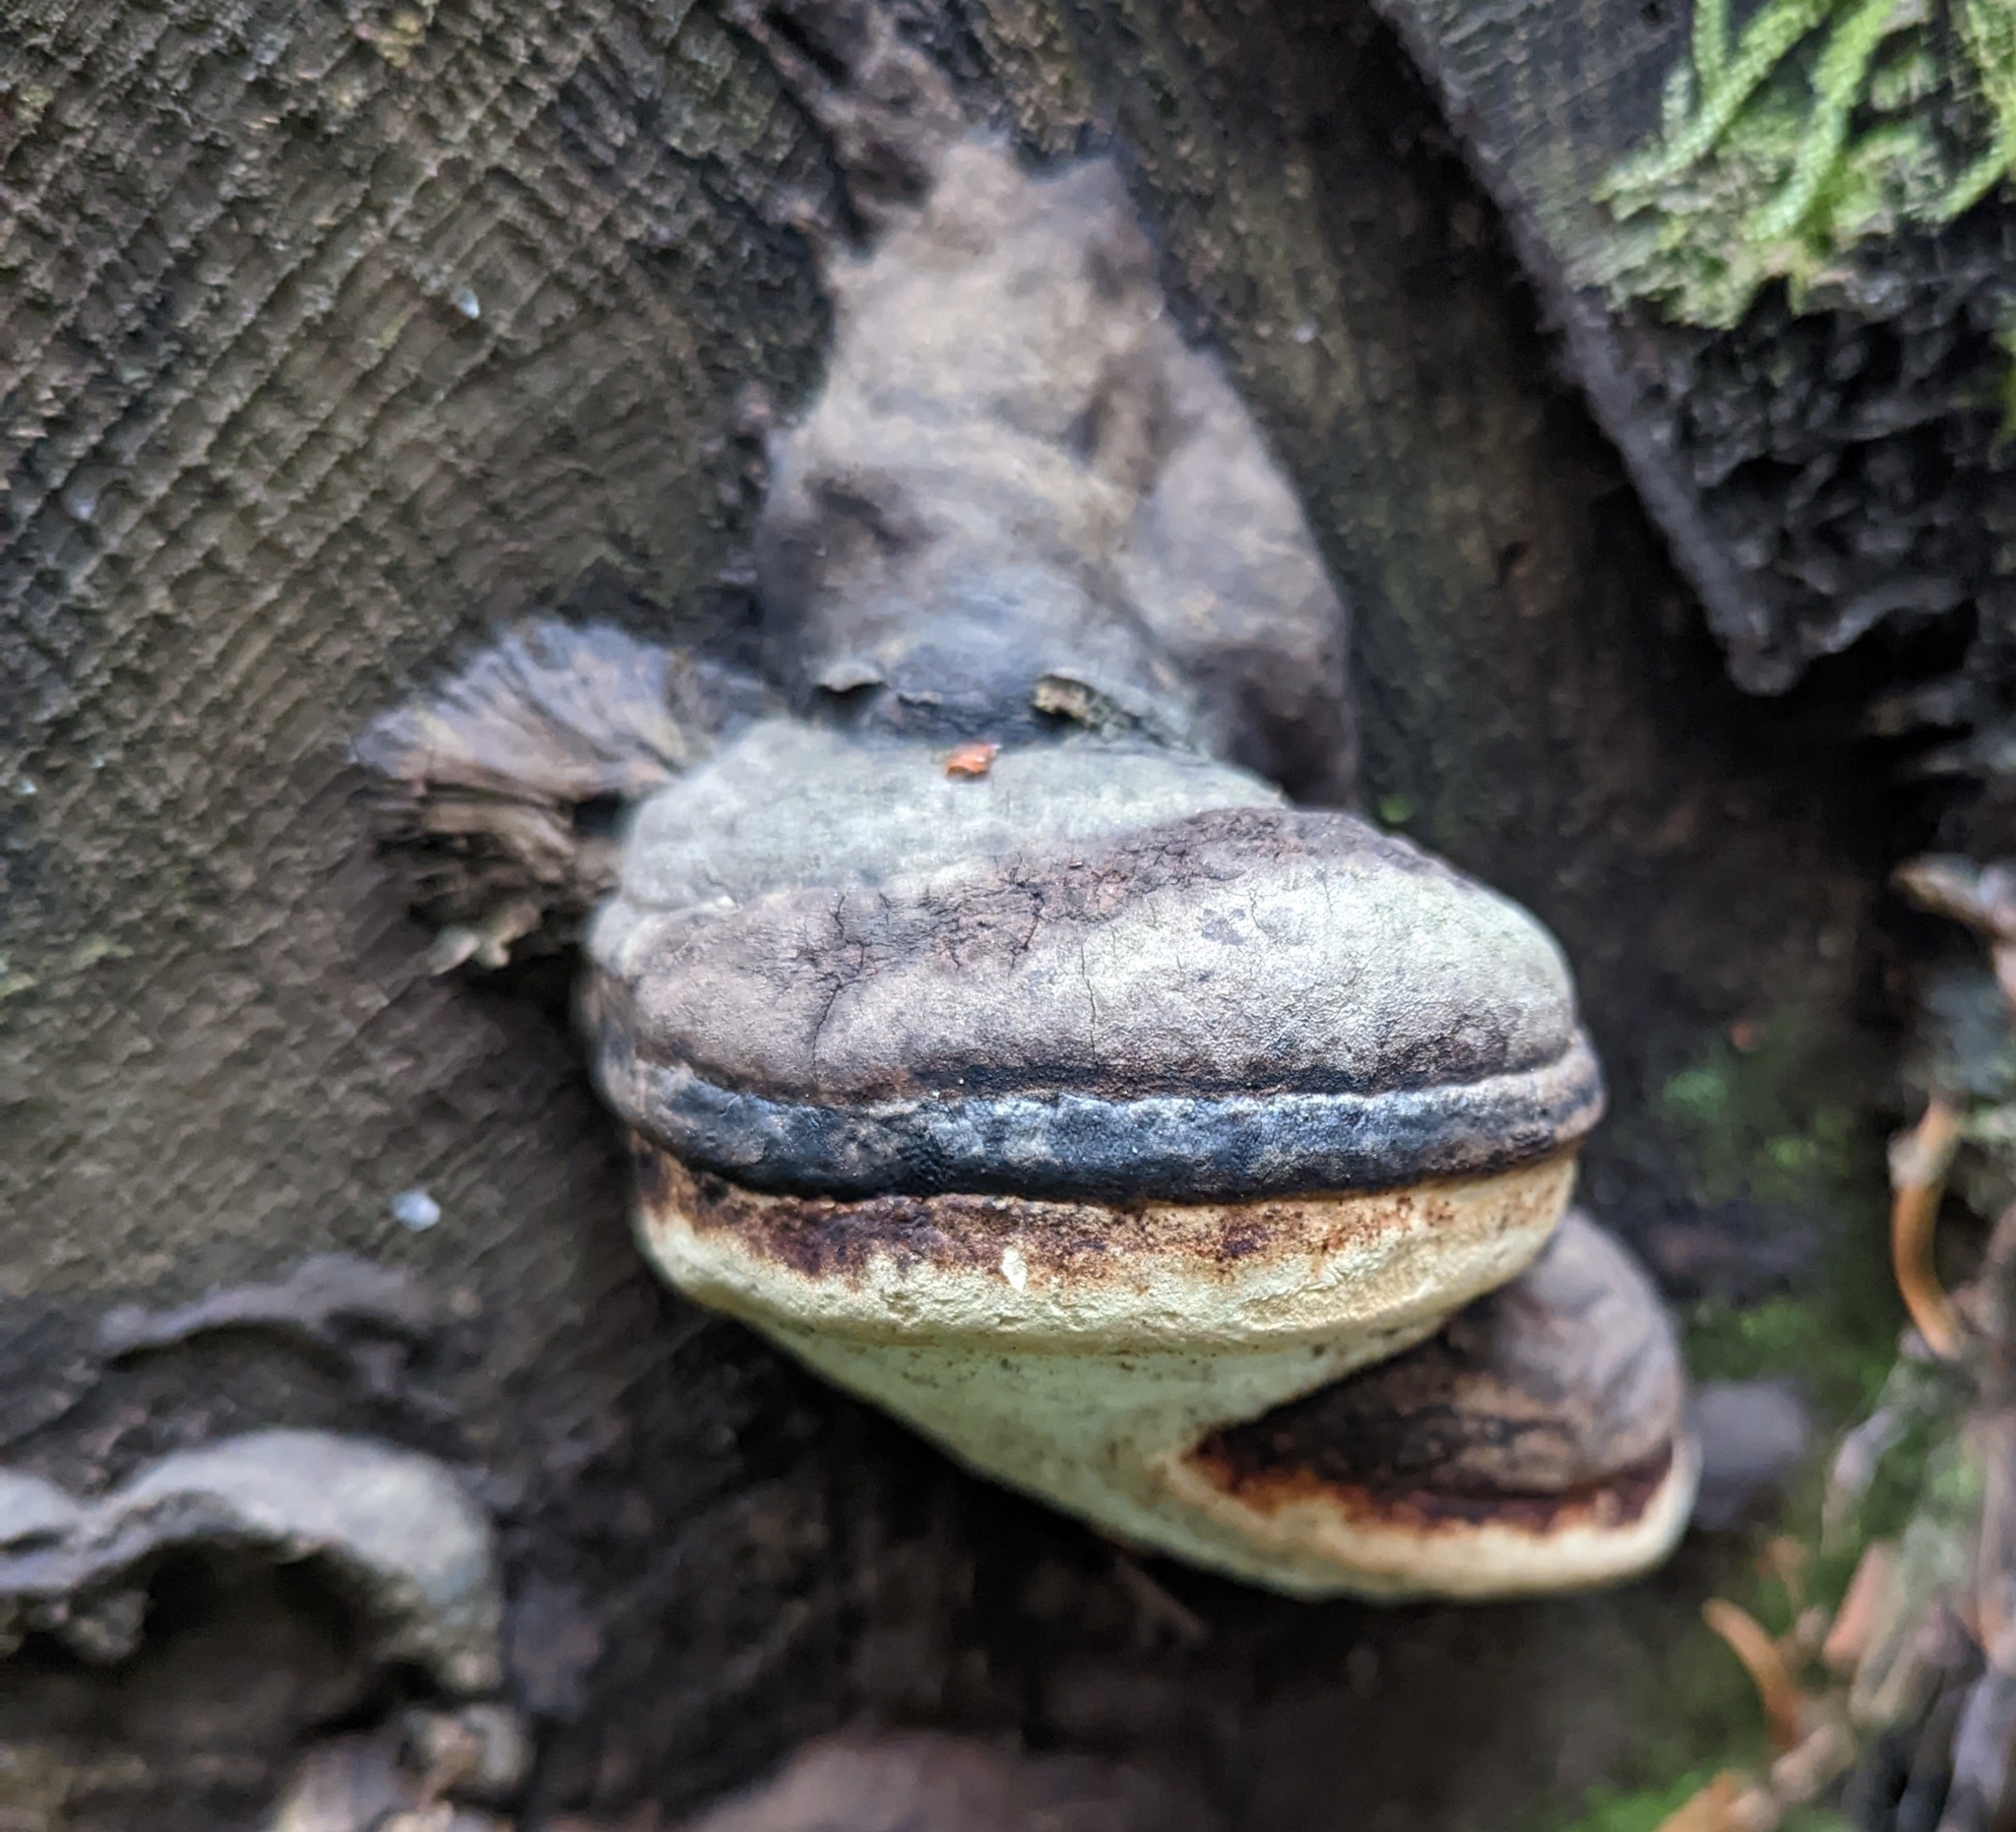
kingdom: Fungi
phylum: Basidiomycota
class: Agaricomycetes
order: Polyporales
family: Fomitopsidaceae
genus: Fomitopsis
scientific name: Fomitopsis mounceae
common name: Northern red belt
